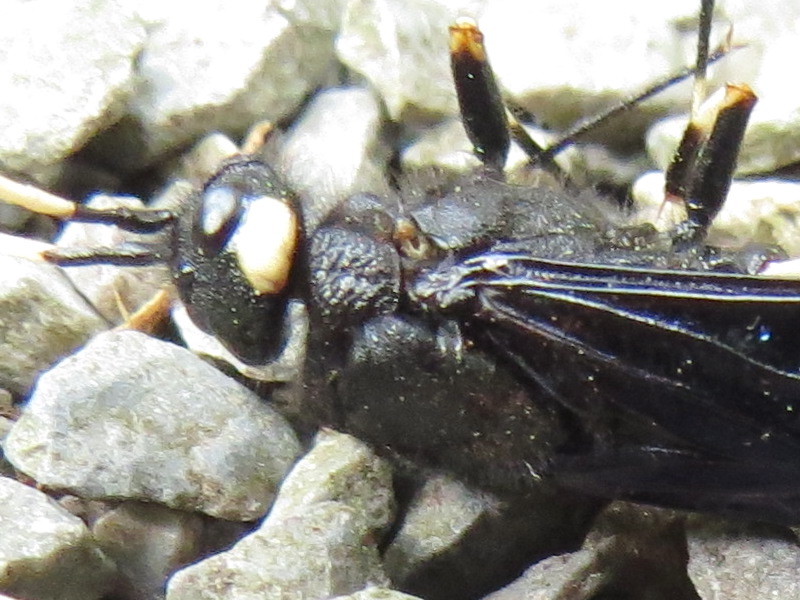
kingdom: Animalia
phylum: Arthropoda
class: Insecta
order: Hymenoptera
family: Siricidae
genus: Urocerus
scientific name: Urocerus albicornis
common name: White-horned horntail
